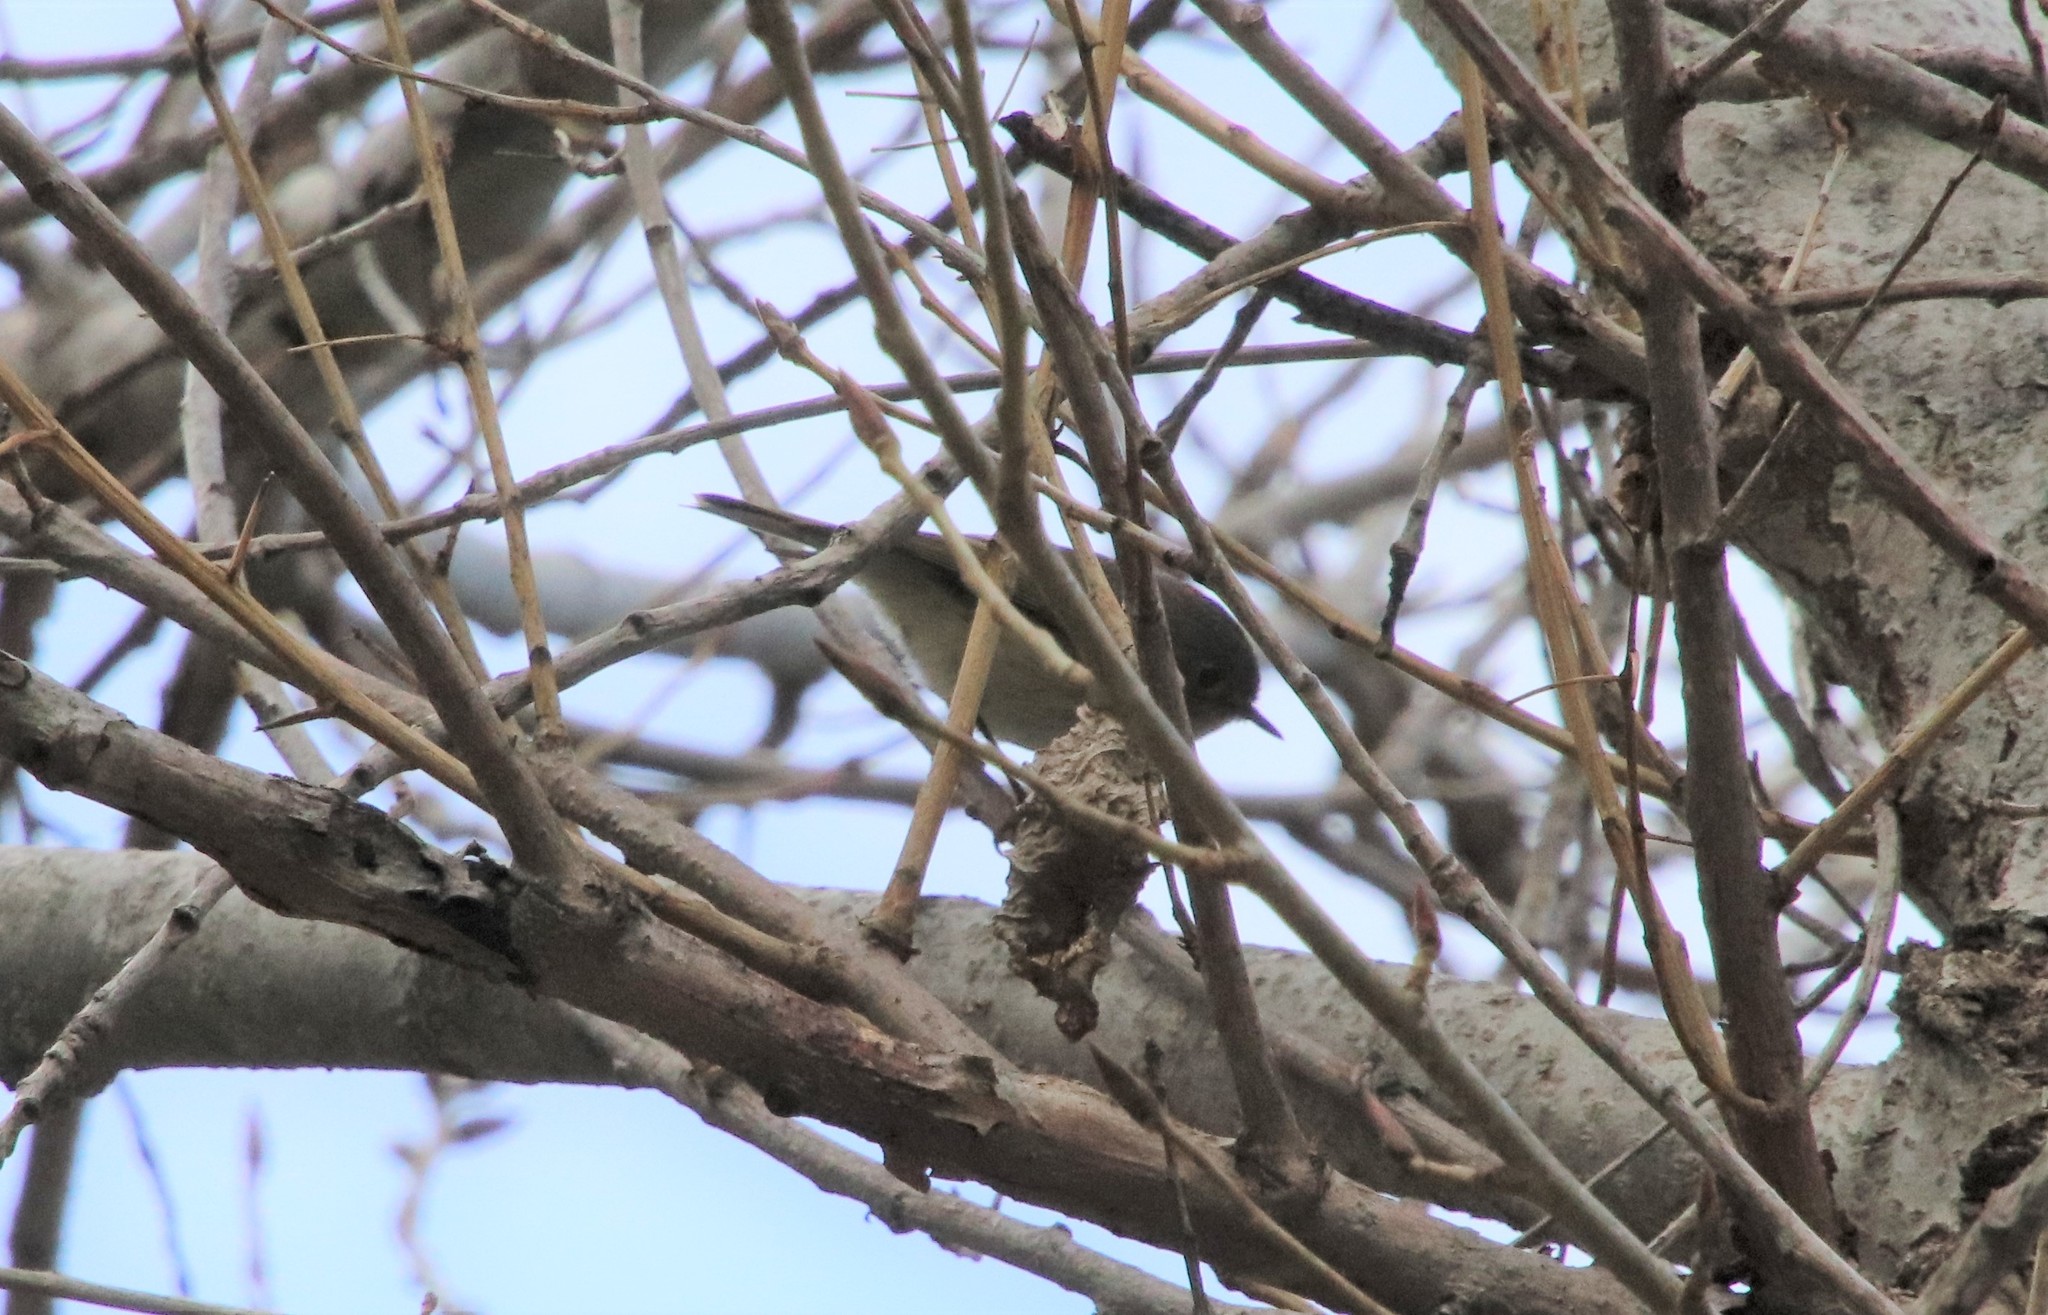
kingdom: Animalia
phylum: Chordata
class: Aves
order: Passeriformes
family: Regulidae
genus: Regulus
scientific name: Regulus calendula
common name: Ruby-crowned kinglet
